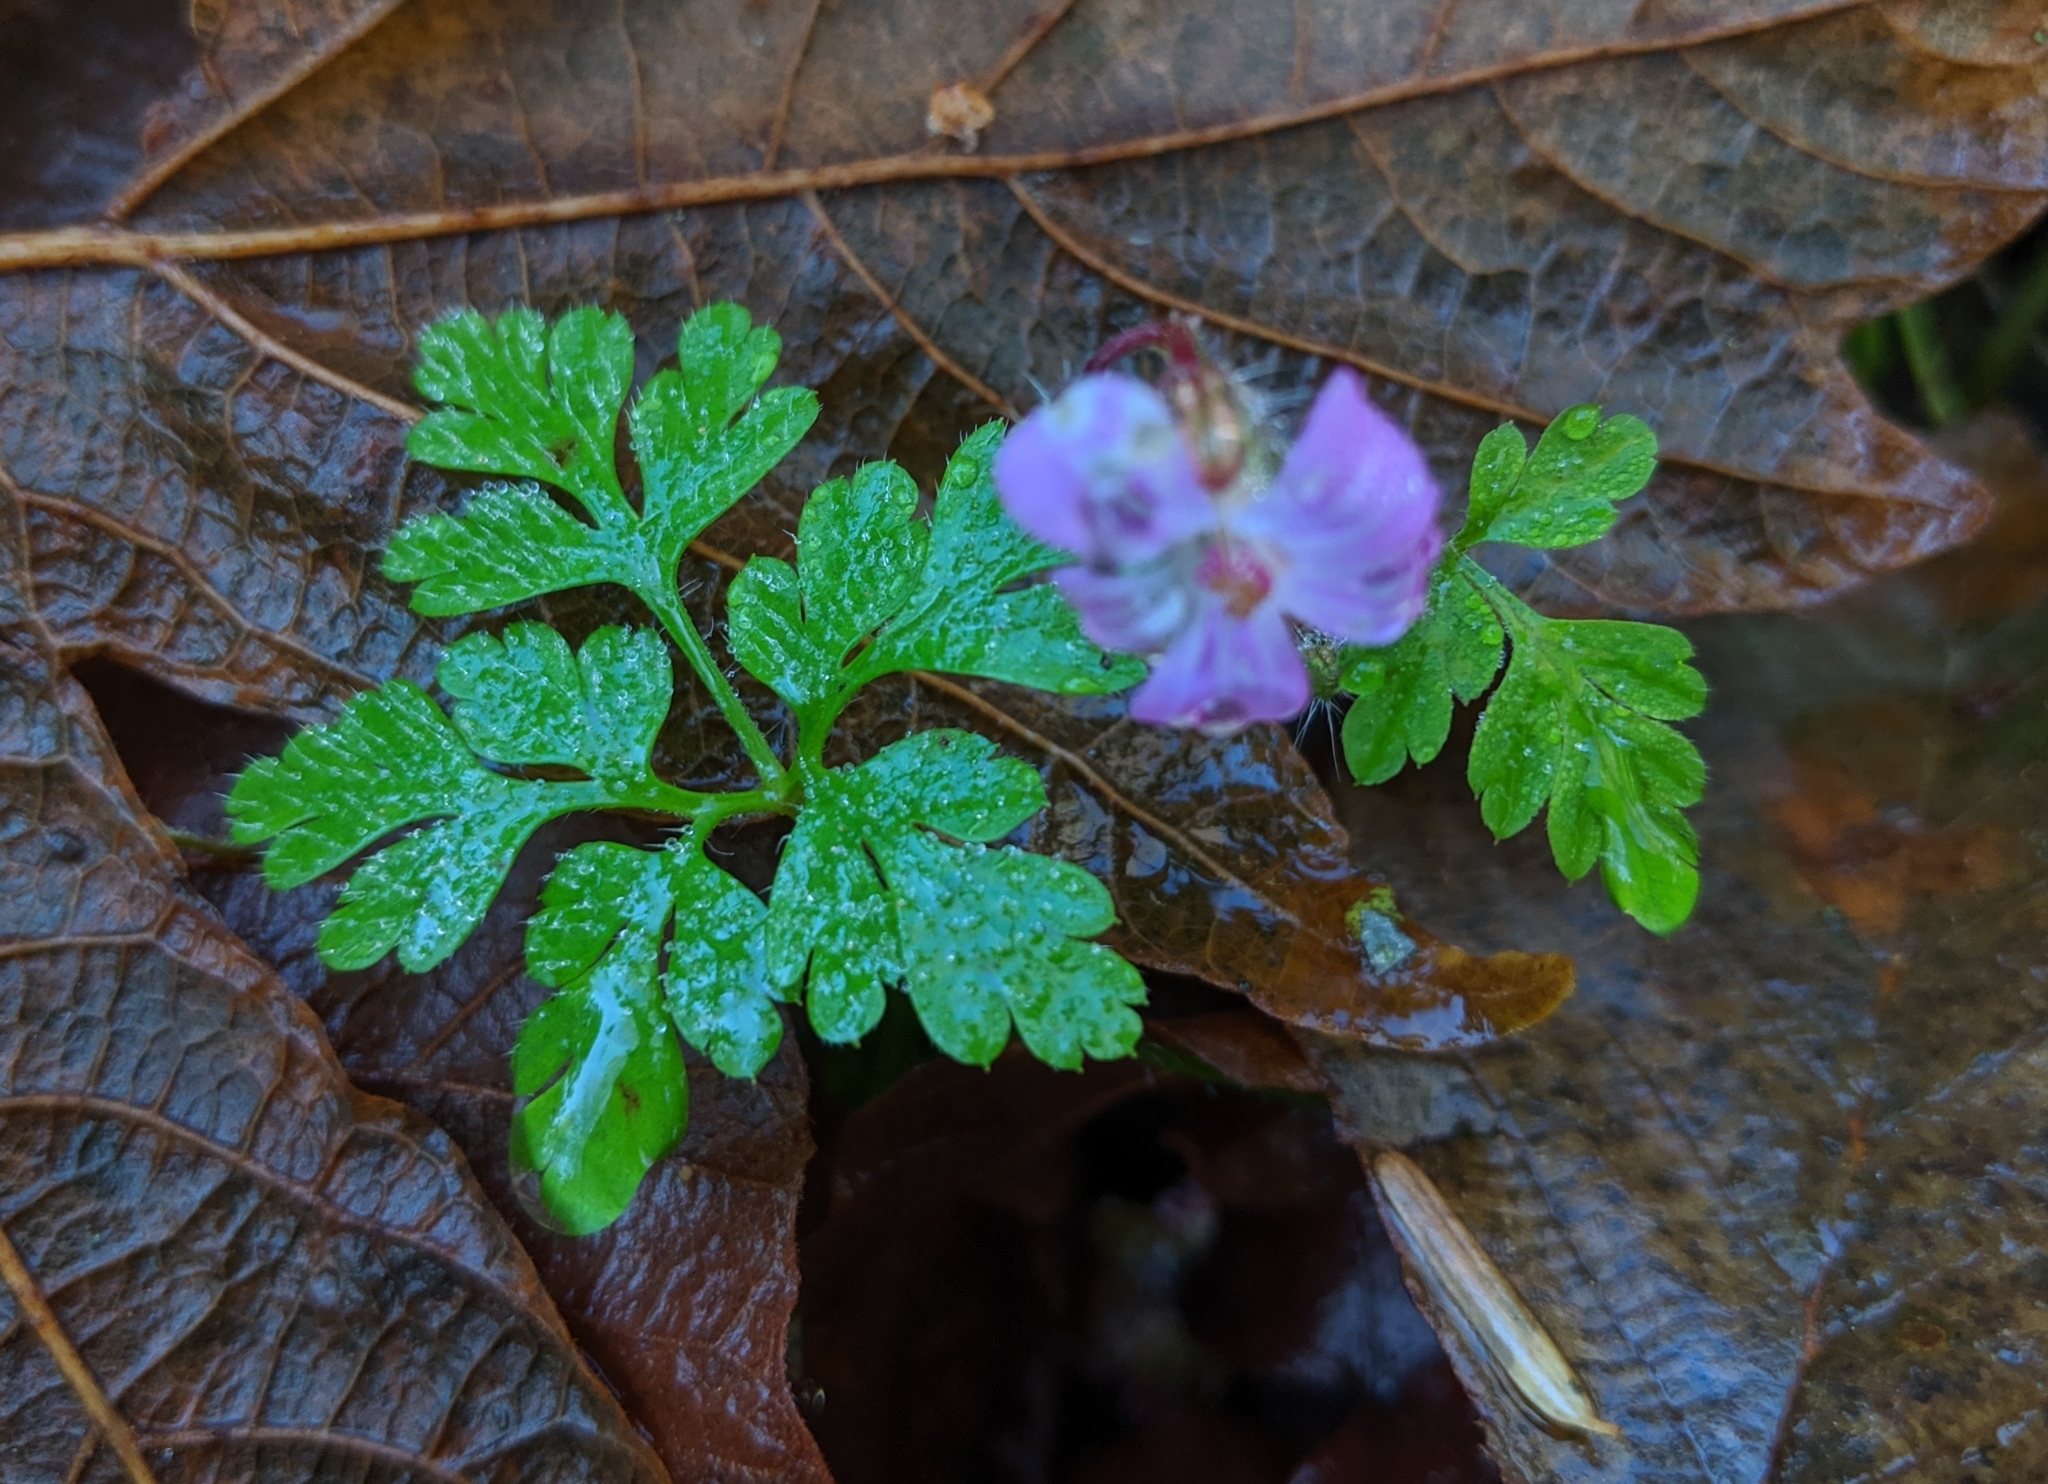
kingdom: Plantae
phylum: Tracheophyta
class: Magnoliopsida
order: Geraniales
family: Geraniaceae
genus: Geranium
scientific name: Geranium robertianum
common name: Herb-robert
